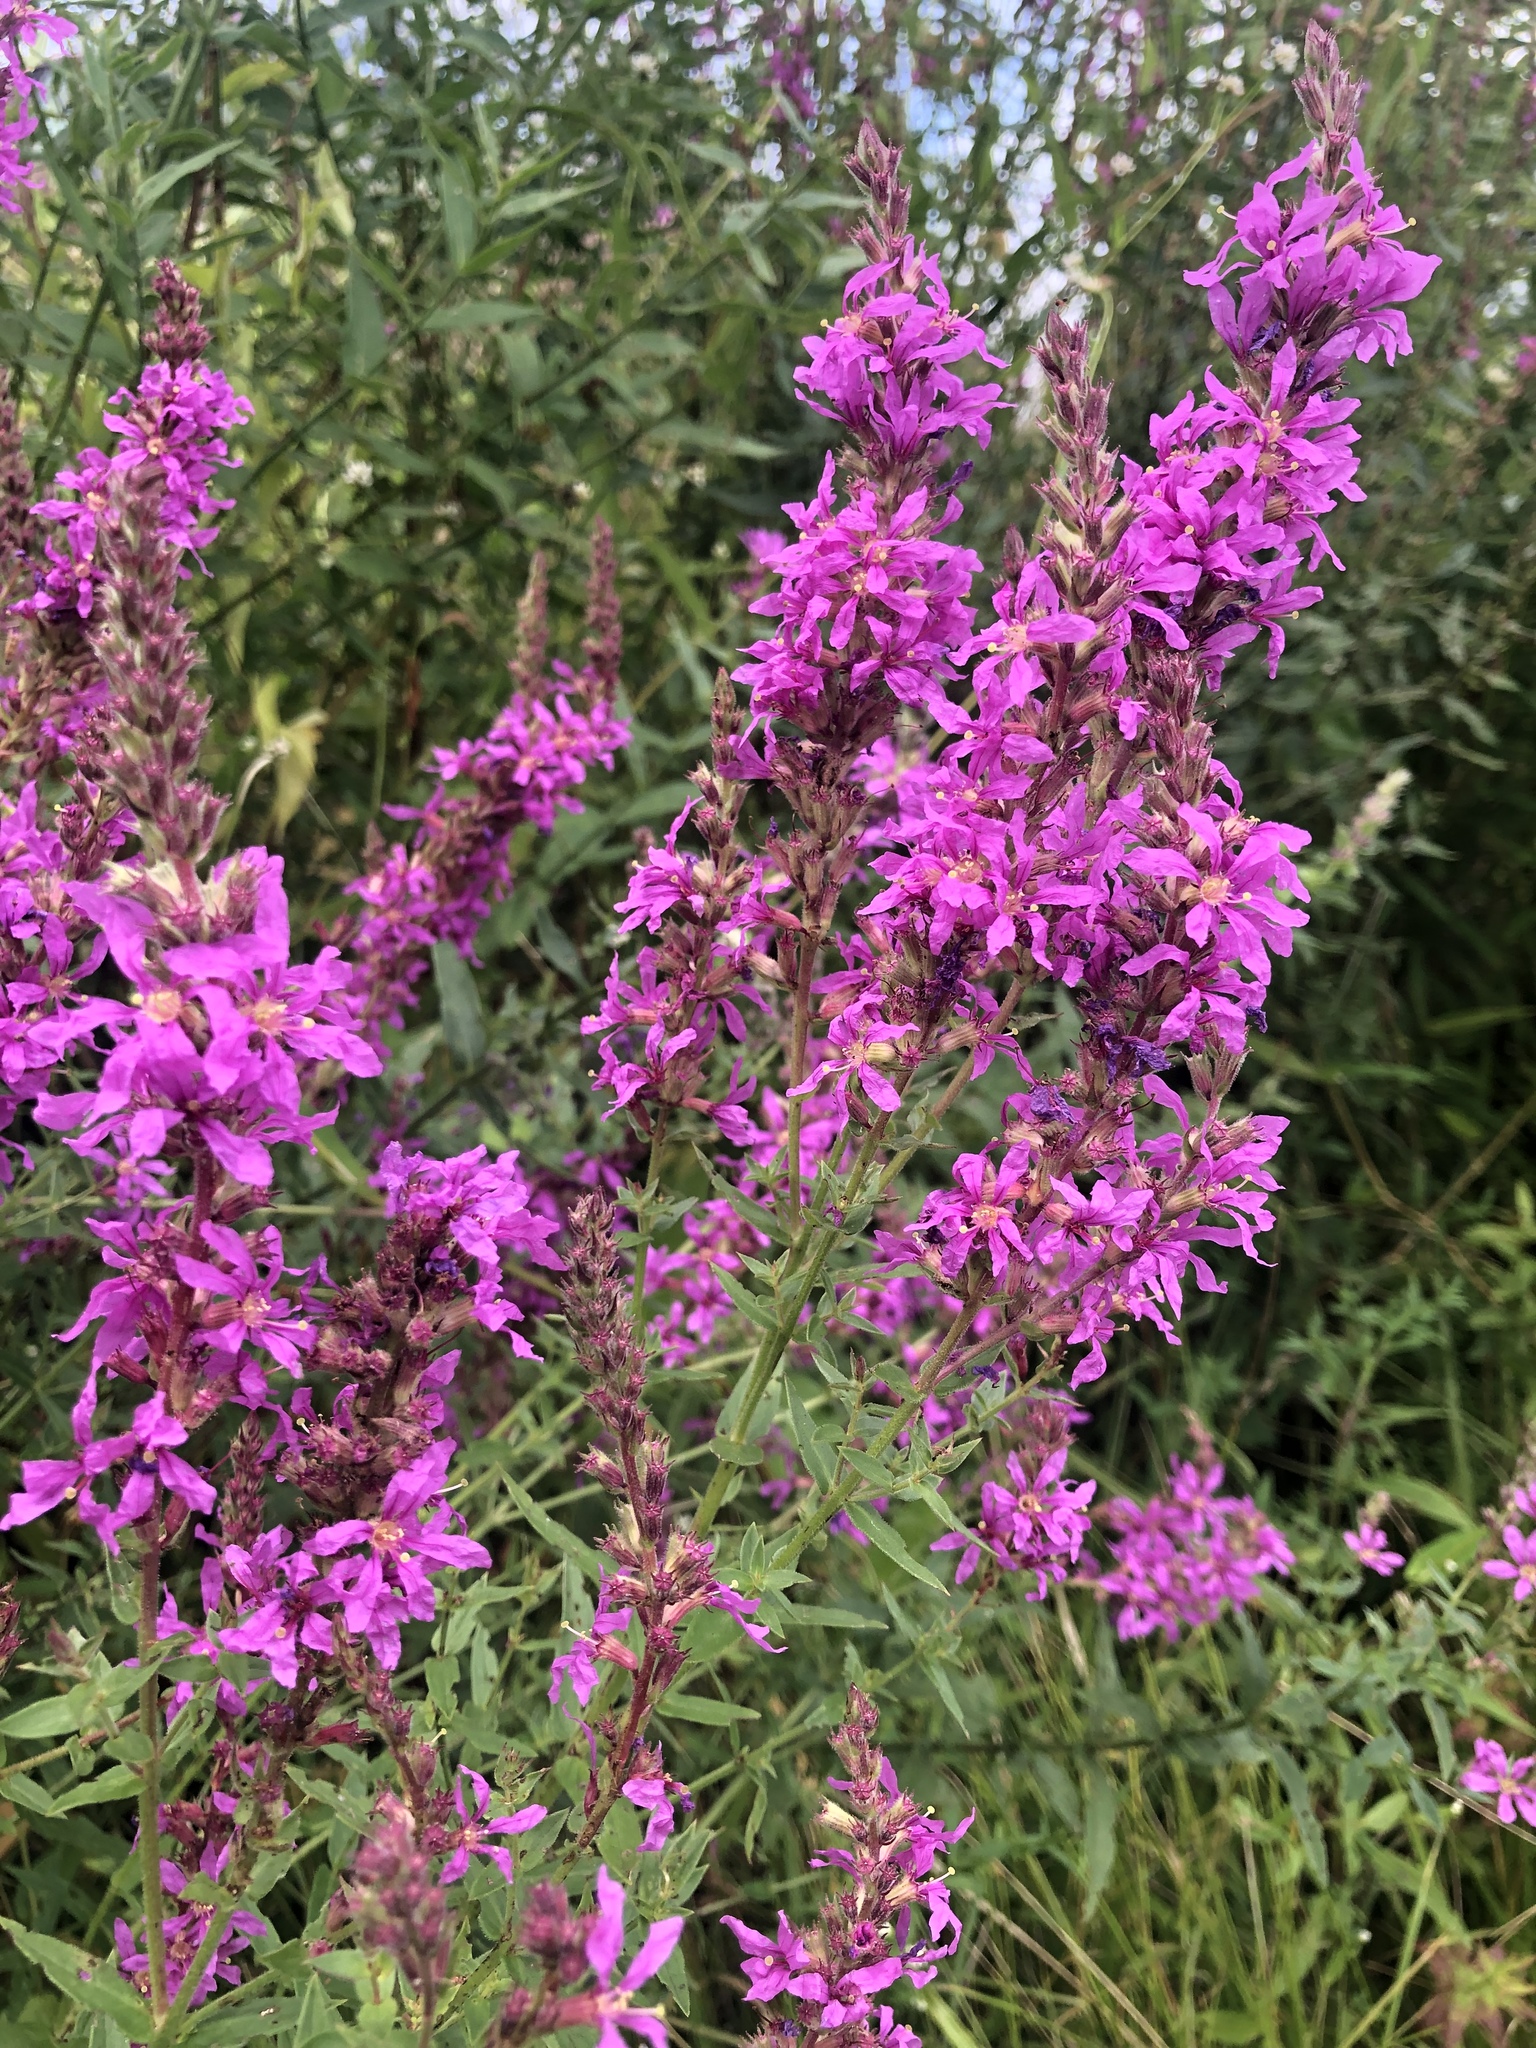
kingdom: Plantae
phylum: Tracheophyta
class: Magnoliopsida
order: Myrtales
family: Lythraceae
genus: Lythrum
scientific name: Lythrum salicaria
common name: Purple loosestrife
